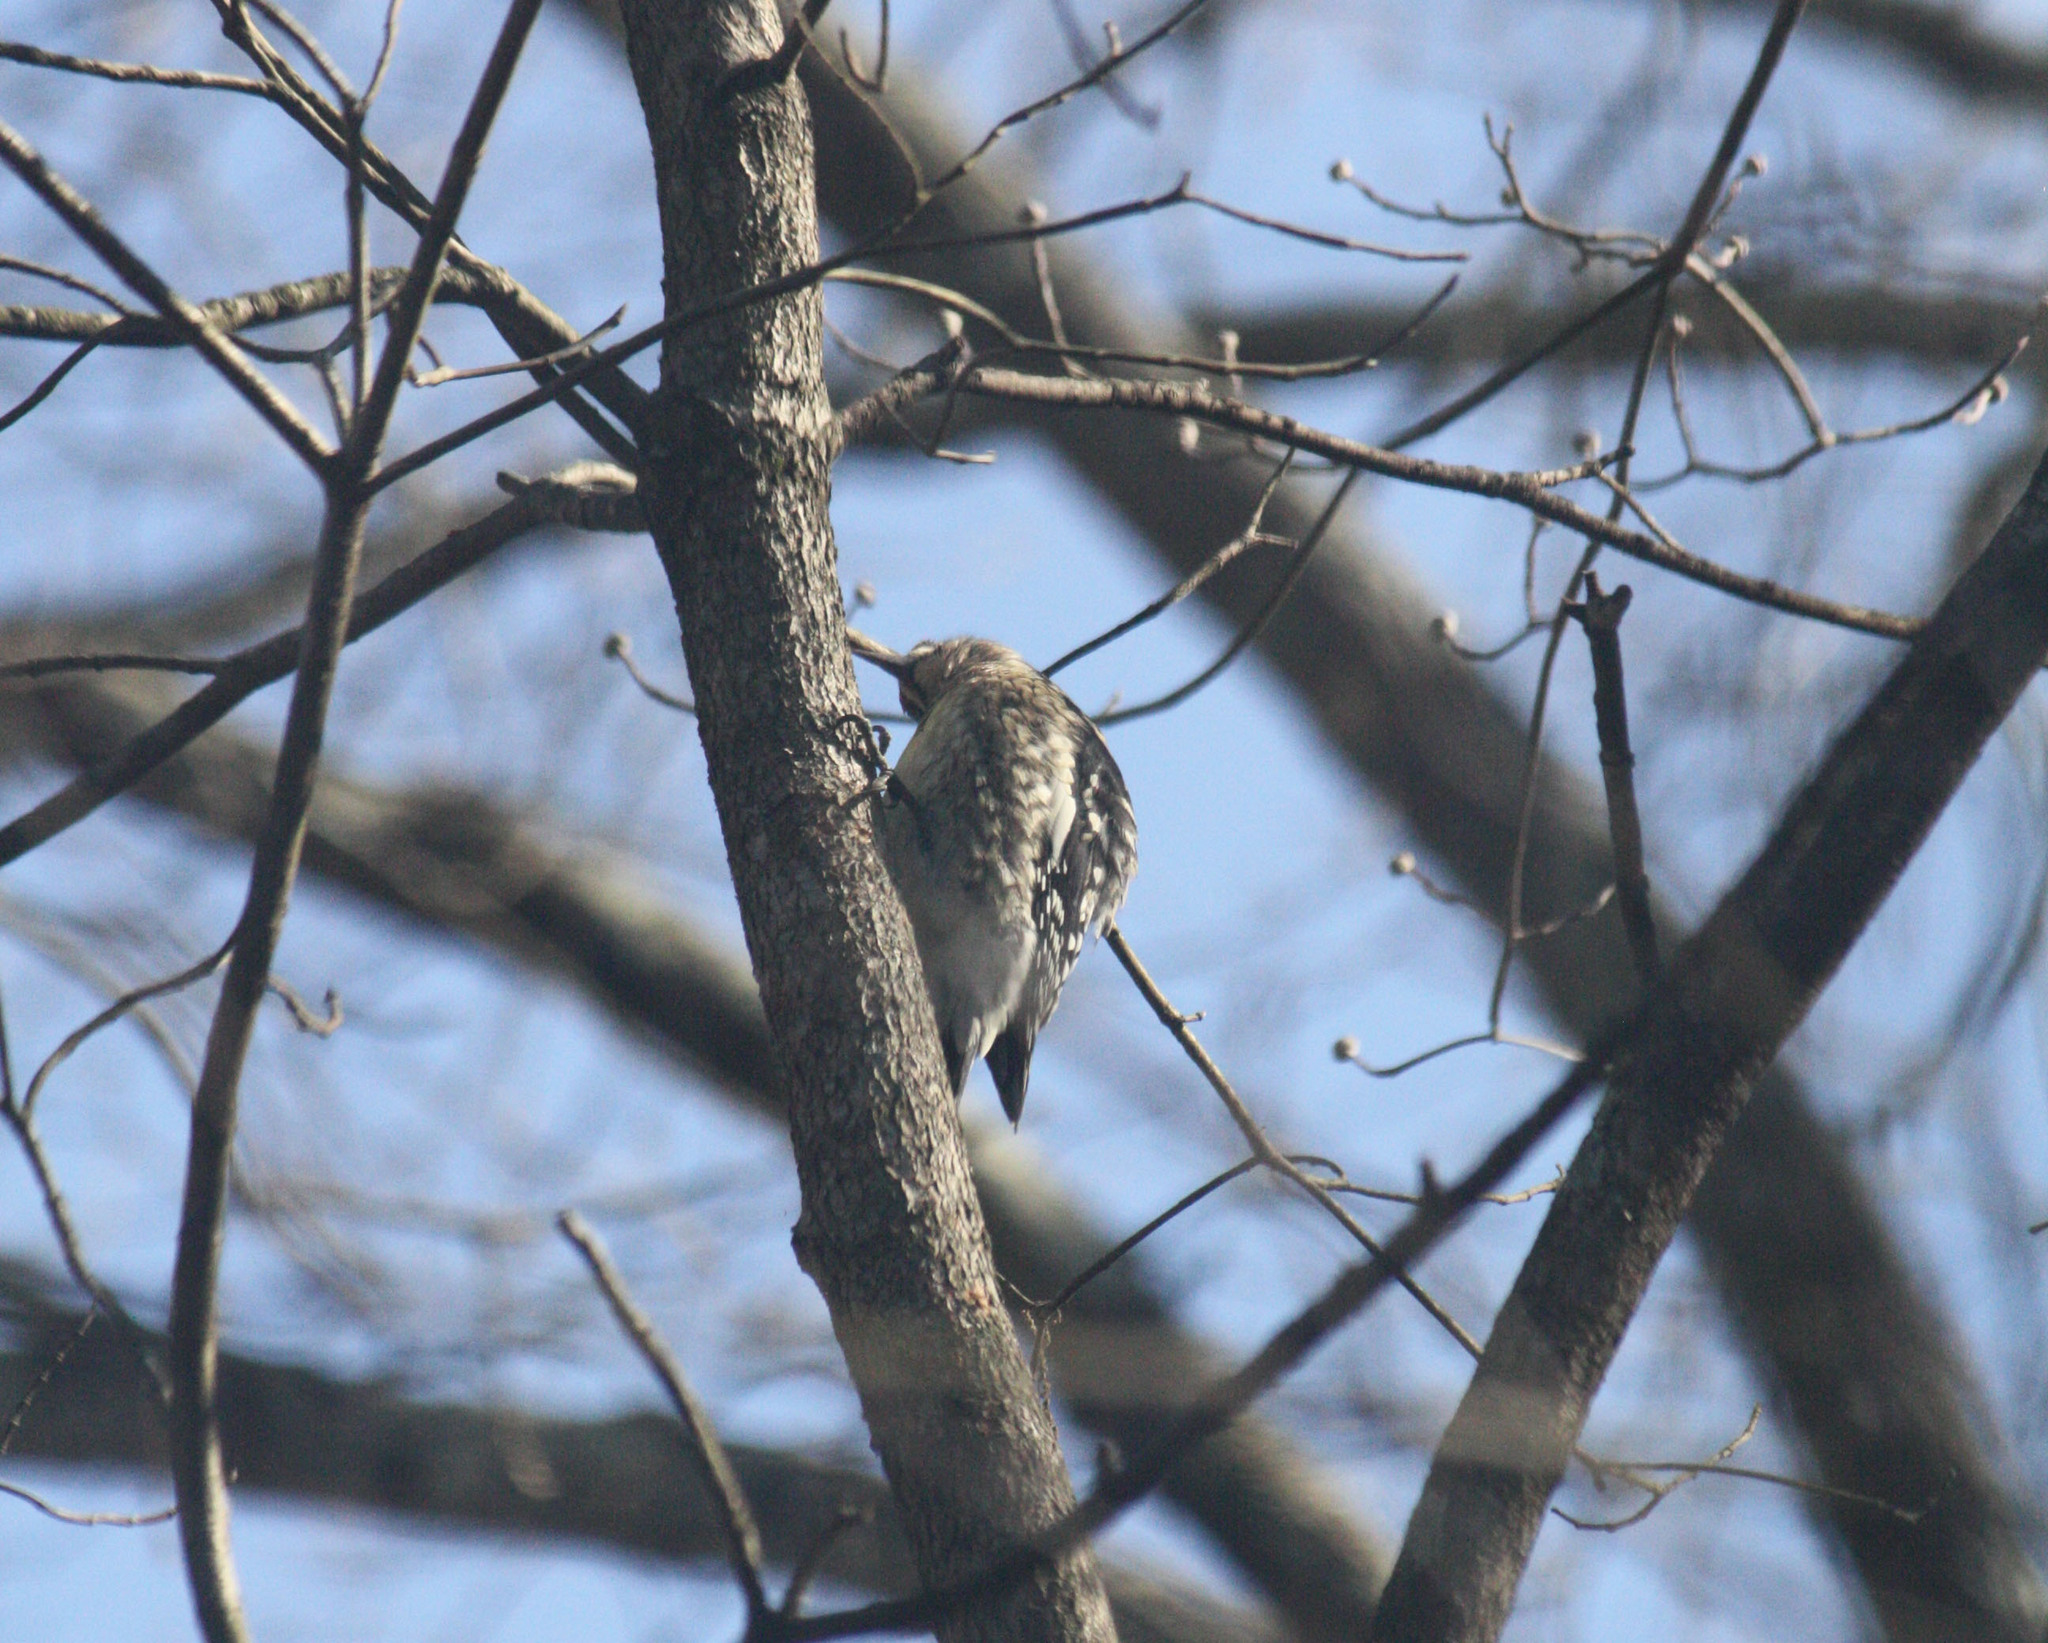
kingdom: Animalia
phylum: Chordata
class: Aves
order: Piciformes
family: Picidae
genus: Sphyrapicus
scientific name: Sphyrapicus varius
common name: Yellow-bellied sapsucker
